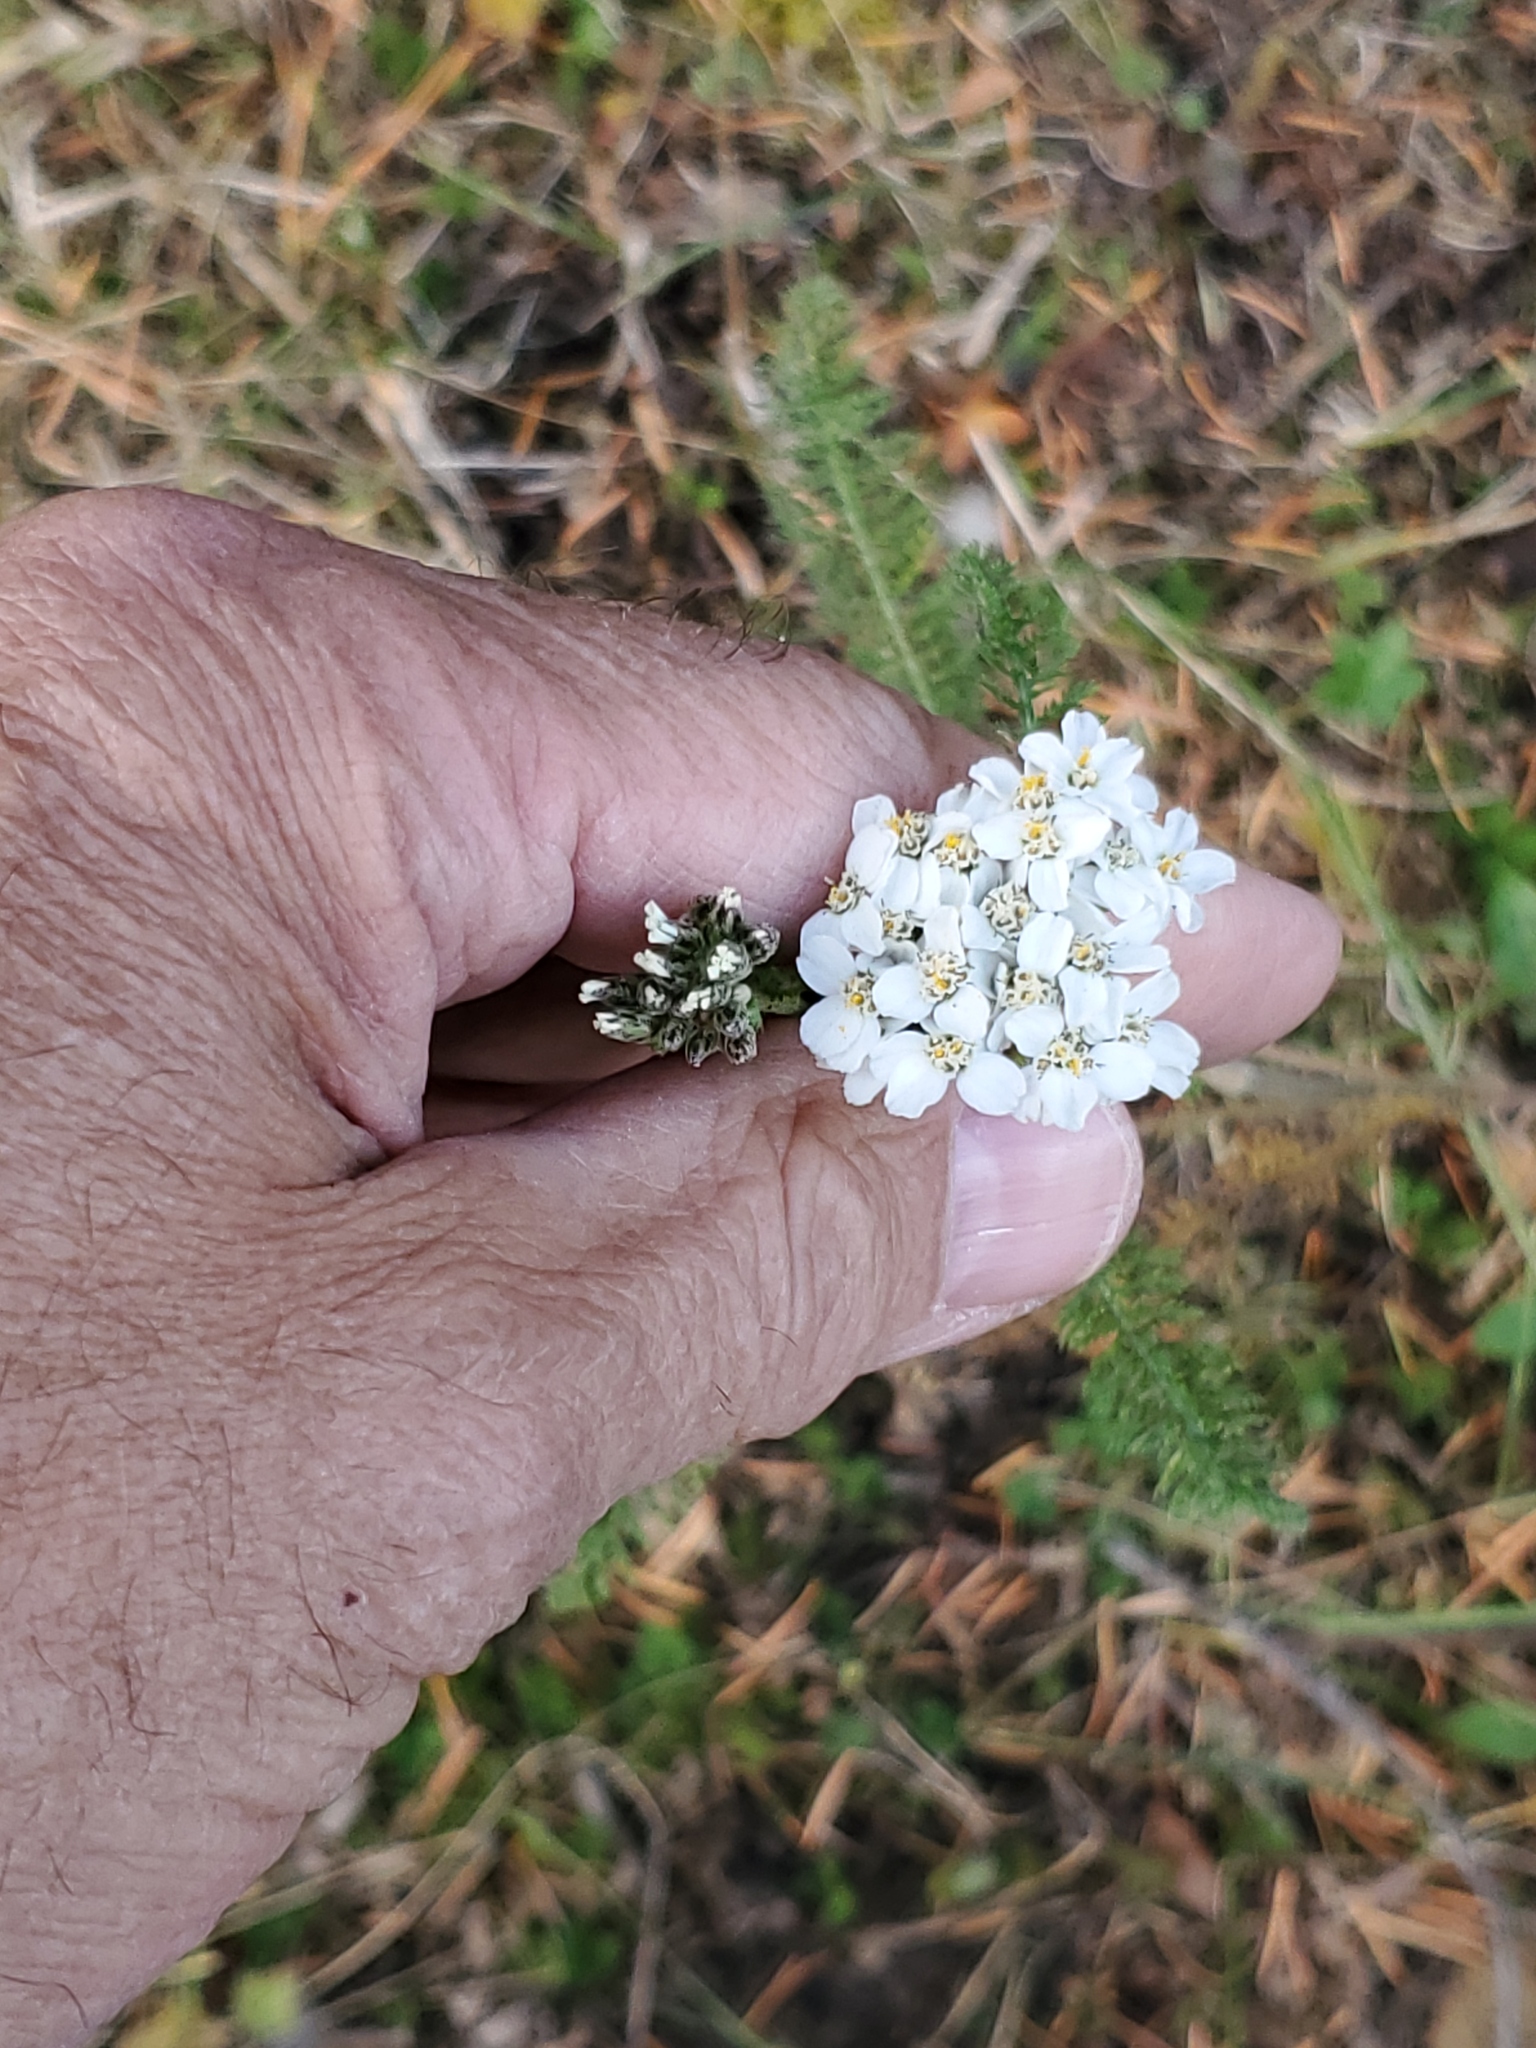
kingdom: Plantae
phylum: Tracheophyta
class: Magnoliopsida
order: Asterales
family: Asteraceae
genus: Achillea
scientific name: Achillea millefolium
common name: Yarrow
